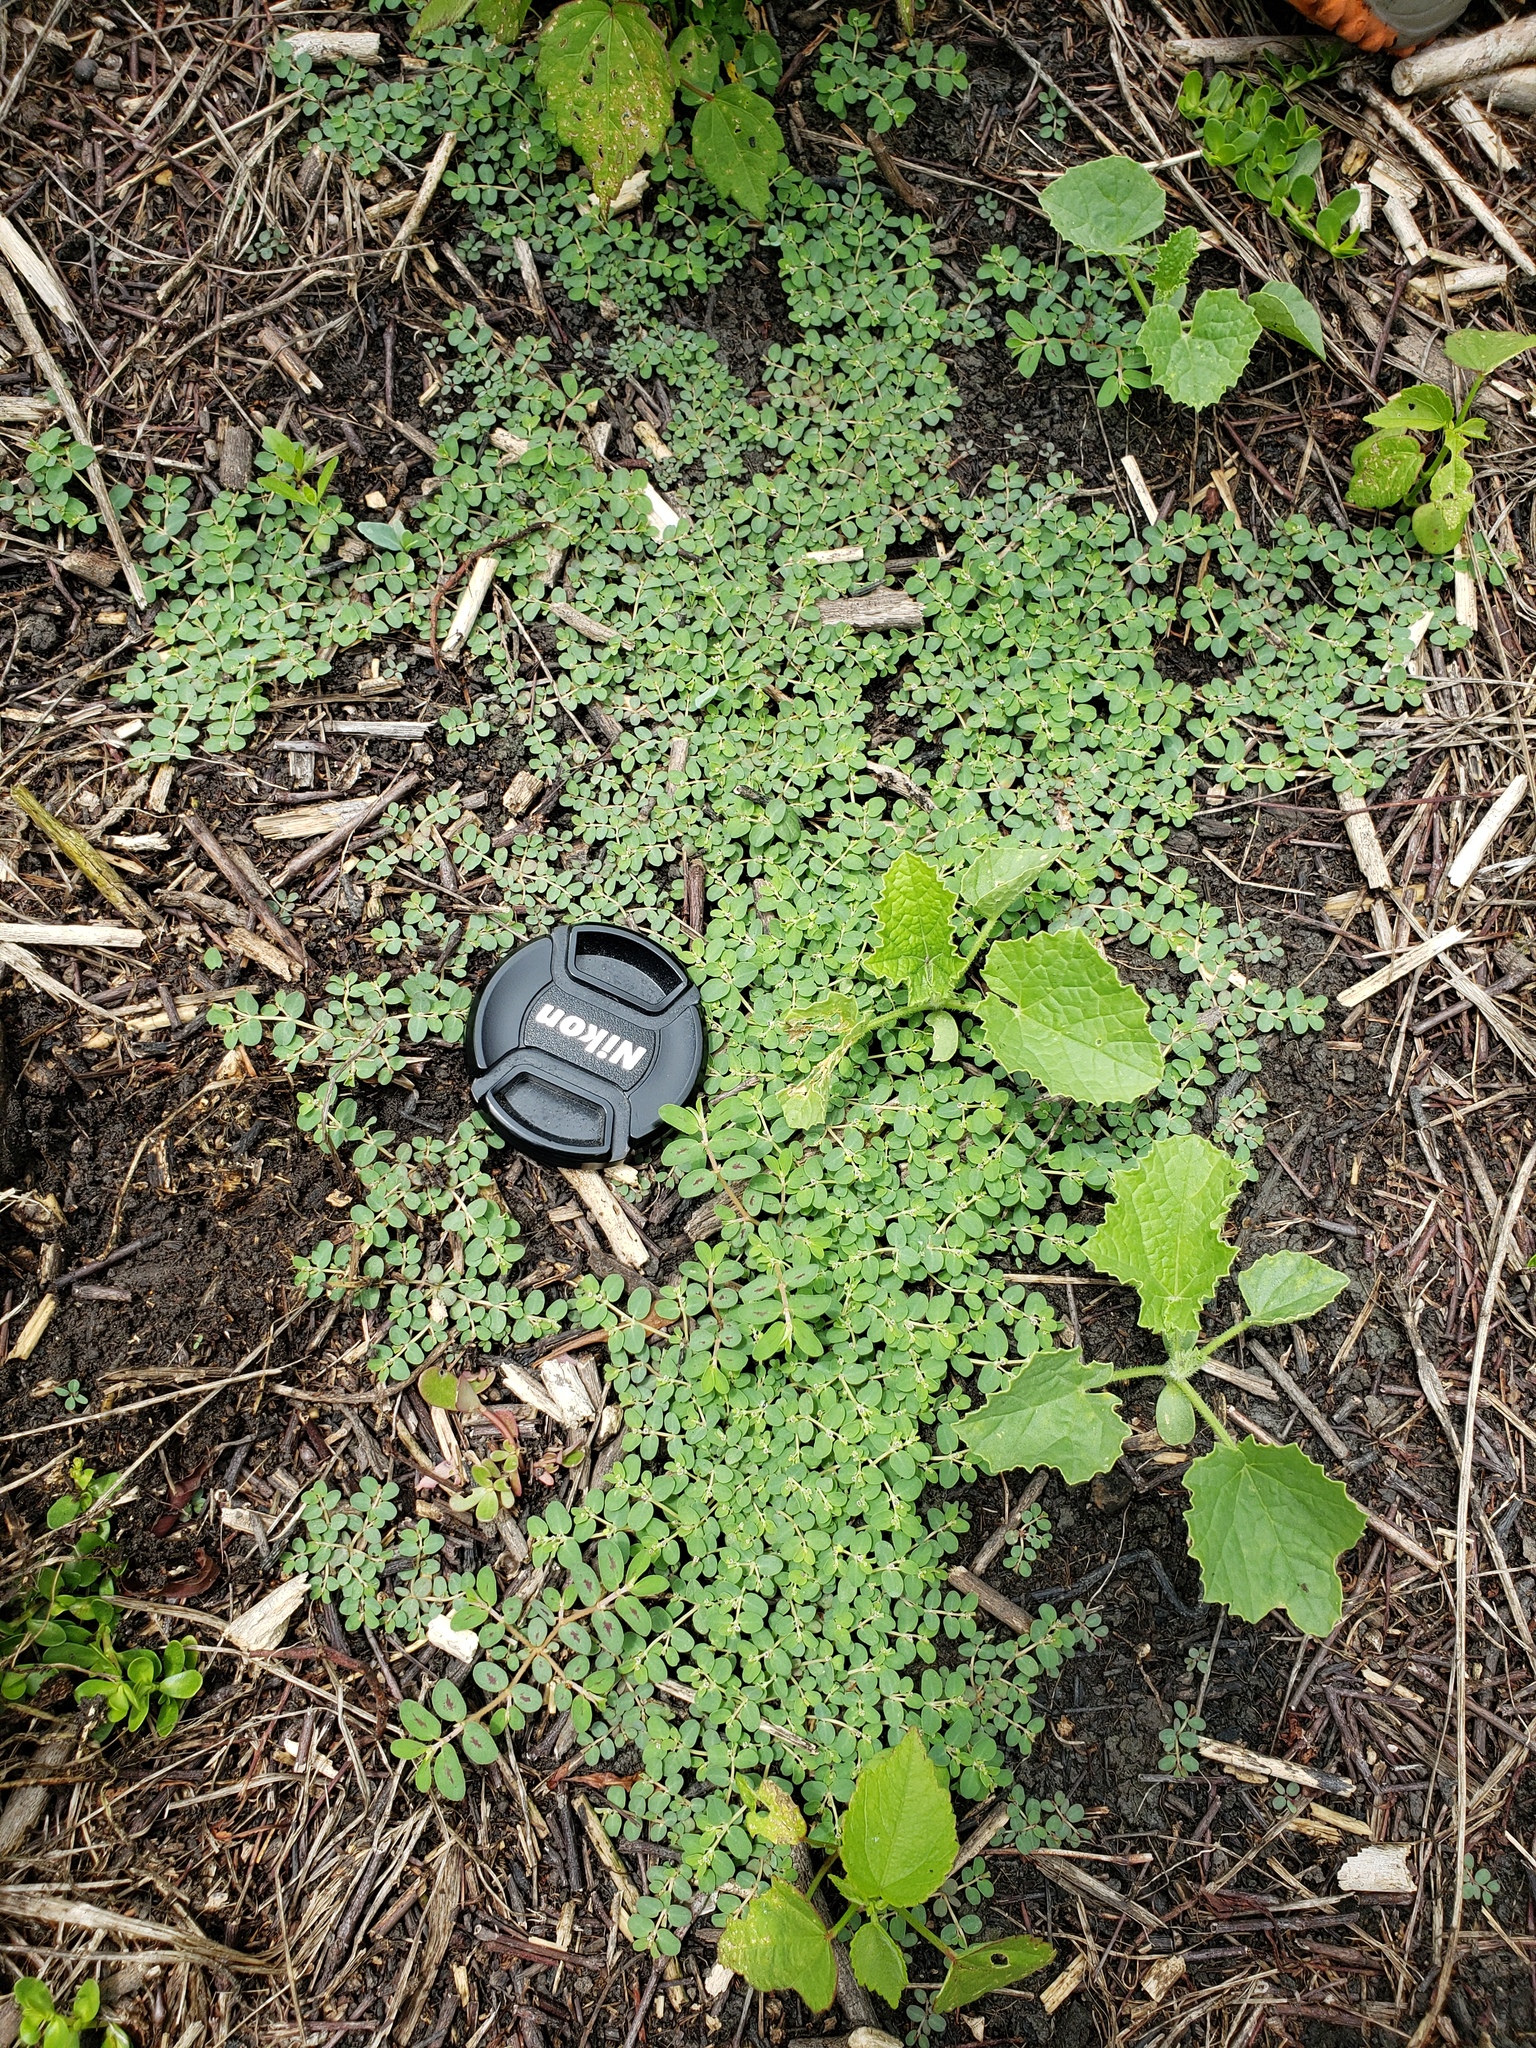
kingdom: Plantae
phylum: Tracheophyta
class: Magnoliopsida
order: Malpighiales
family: Euphorbiaceae
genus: Euphorbia
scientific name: Euphorbia serpens
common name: Matted sandmat
